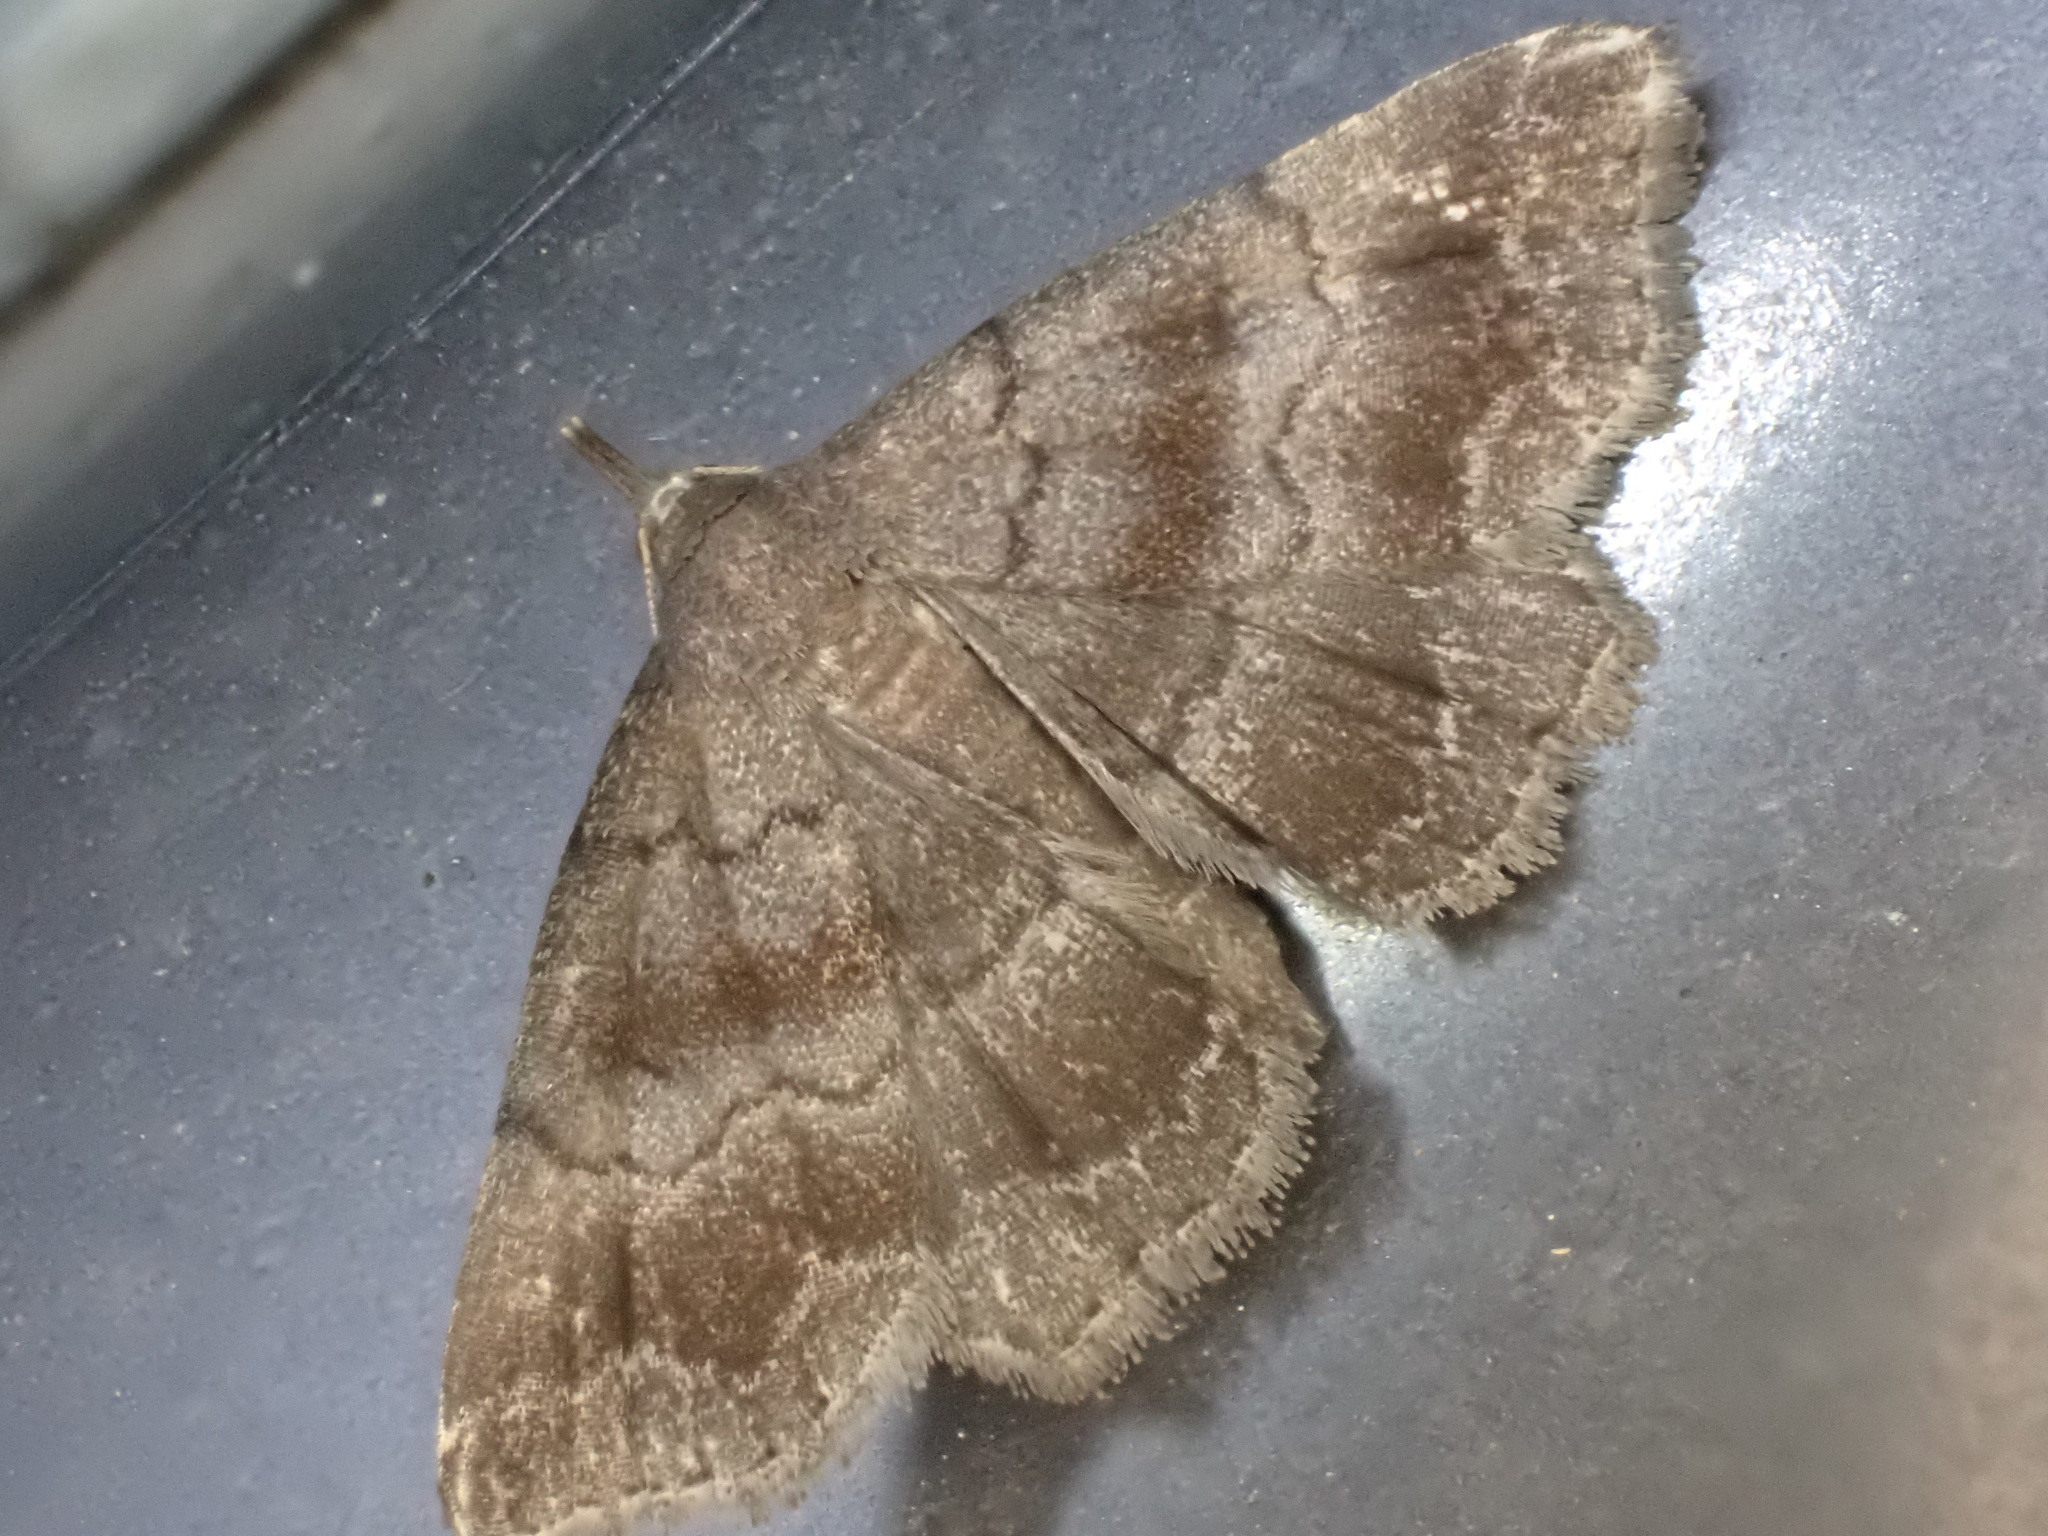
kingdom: Animalia
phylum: Arthropoda
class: Insecta
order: Lepidoptera
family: Erebidae
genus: Phalaenostola
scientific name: Phalaenostola larentioides
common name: Black-banded owlet
